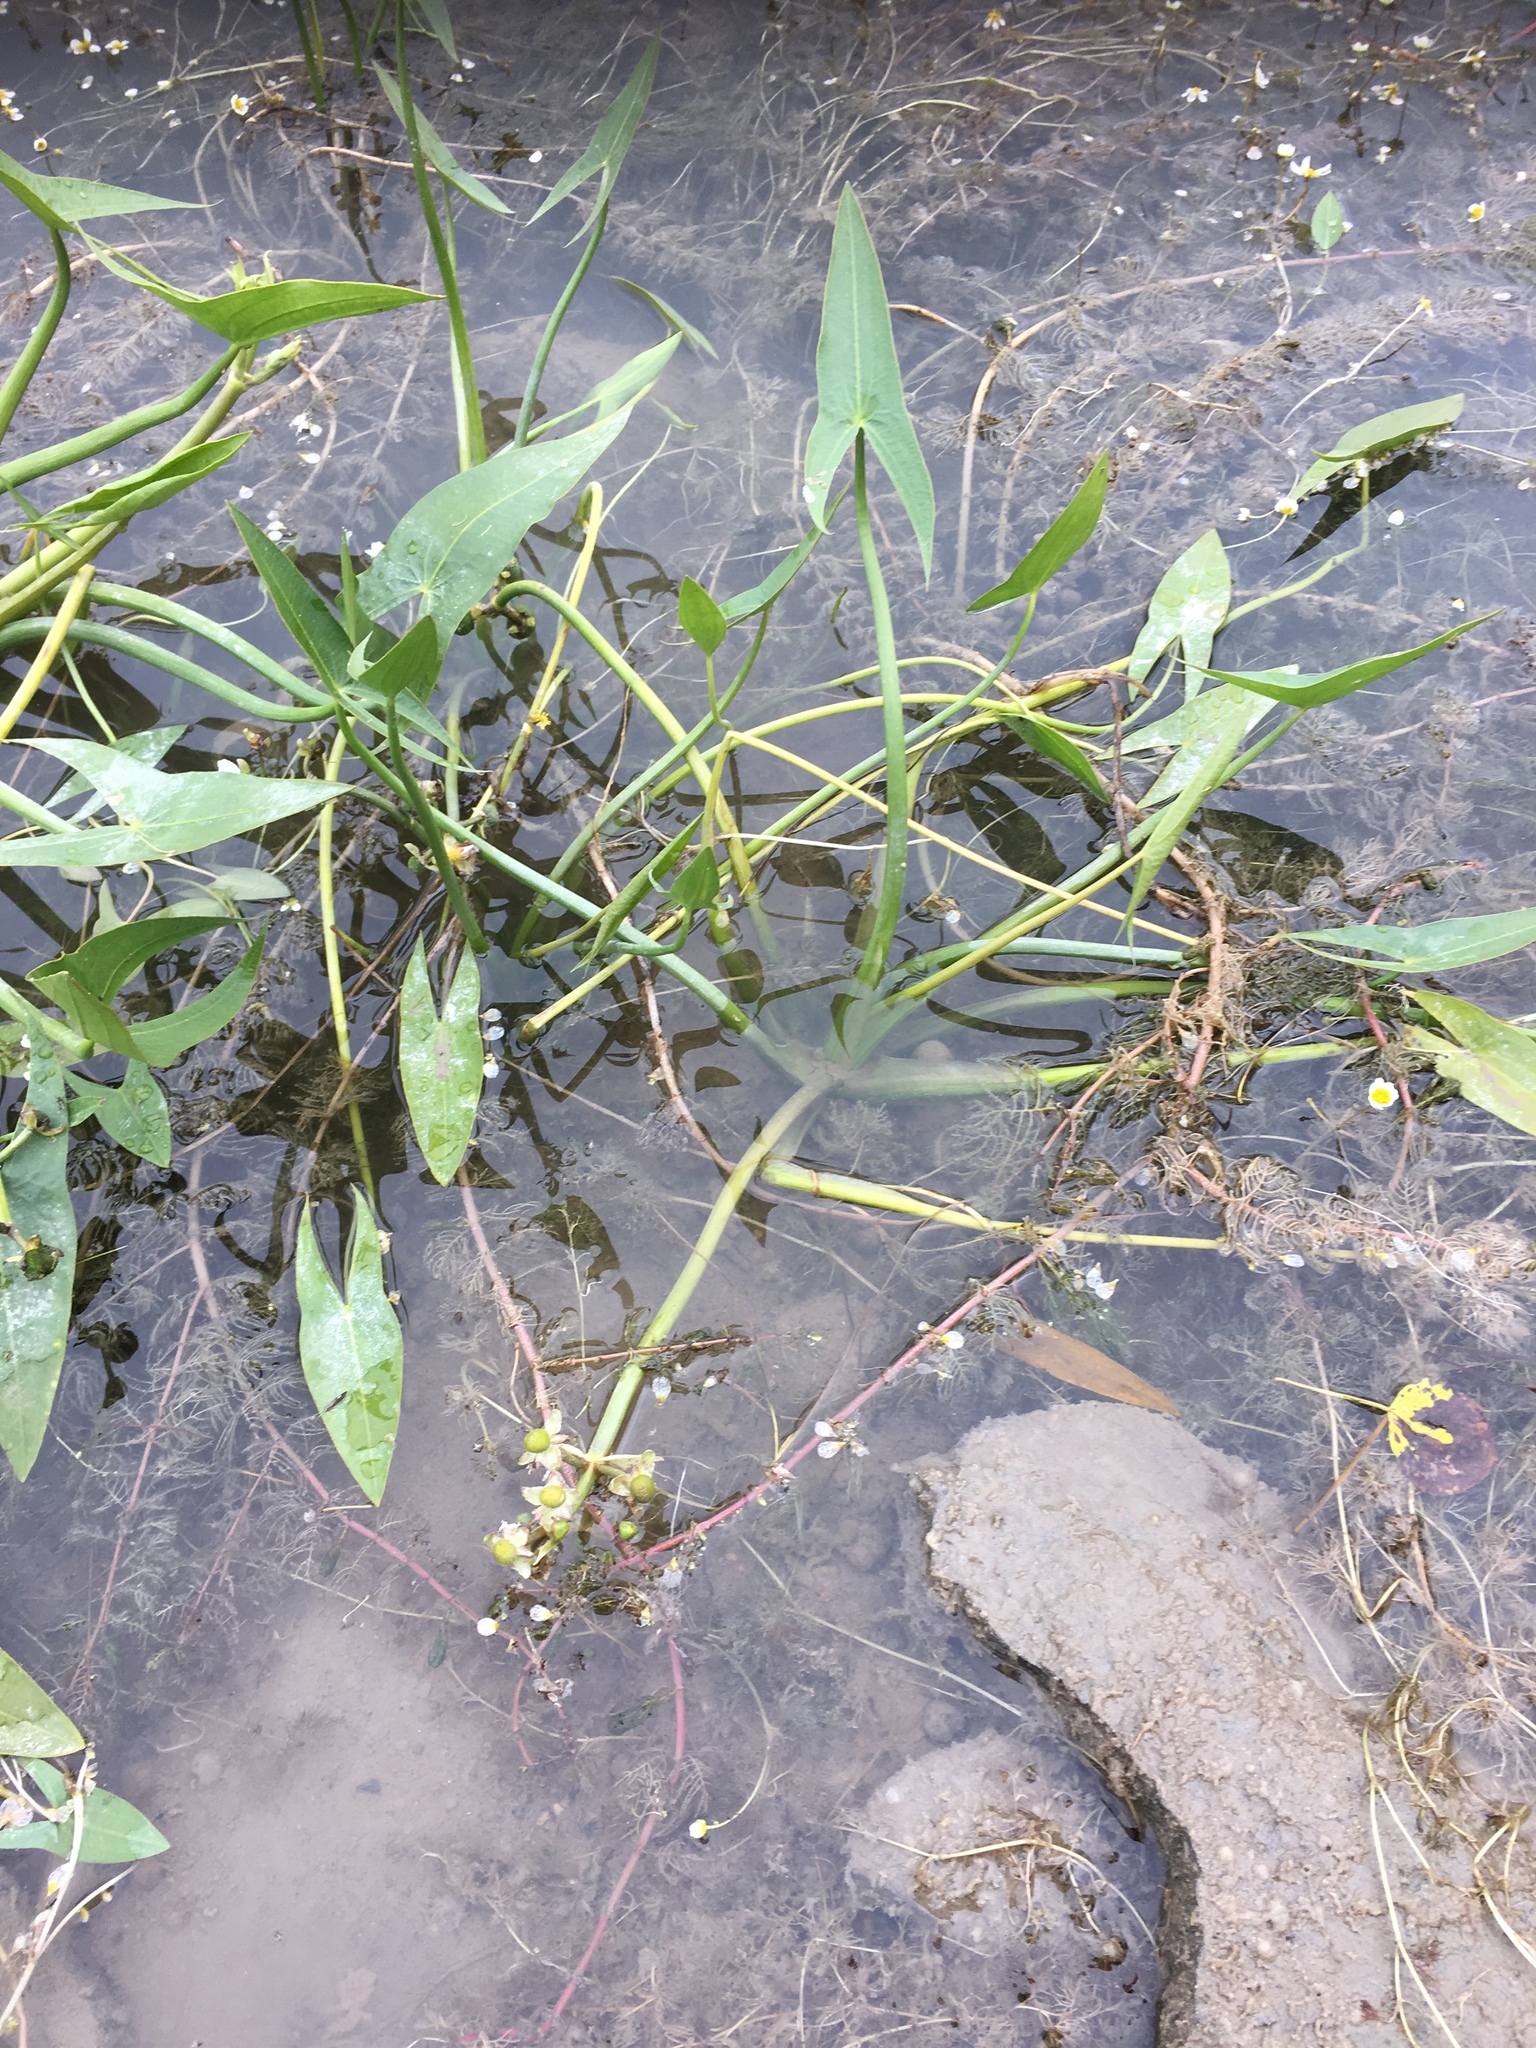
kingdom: Plantae
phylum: Tracheophyta
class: Liliopsida
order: Alismatales
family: Alismataceae
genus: Sagittaria
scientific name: Sagittaria cuneata
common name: Northern arrowhead
